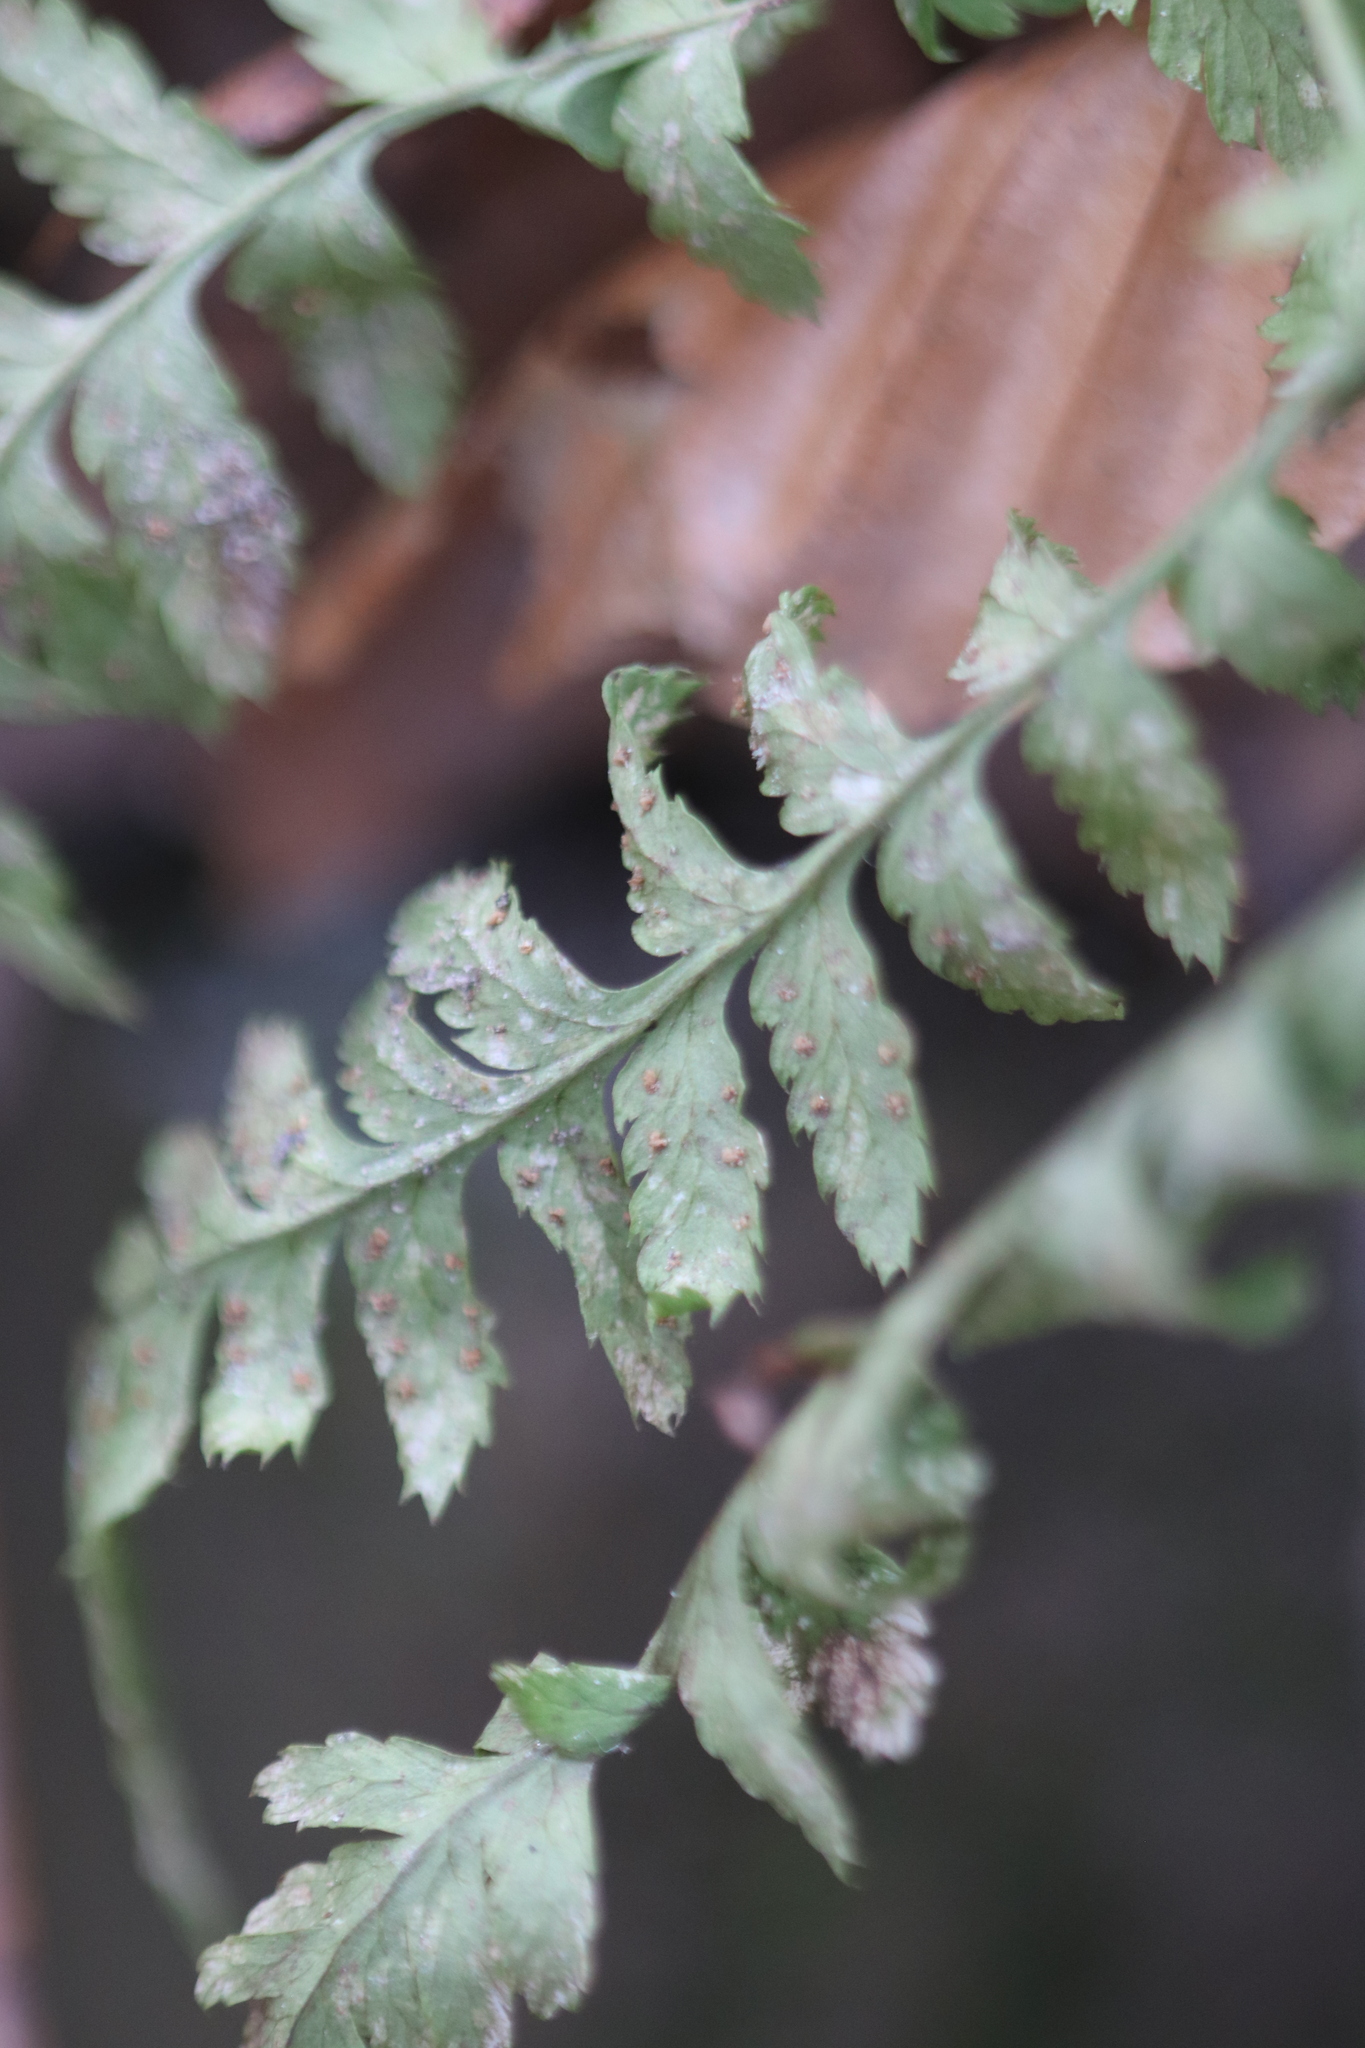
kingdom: Plantae
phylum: Tracheophyta
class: Polypodiopsida
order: Polypodiales
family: Dryopteridaceae
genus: Dryopteris
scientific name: Dryopteris intermedia
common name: Evergreen wood fern
